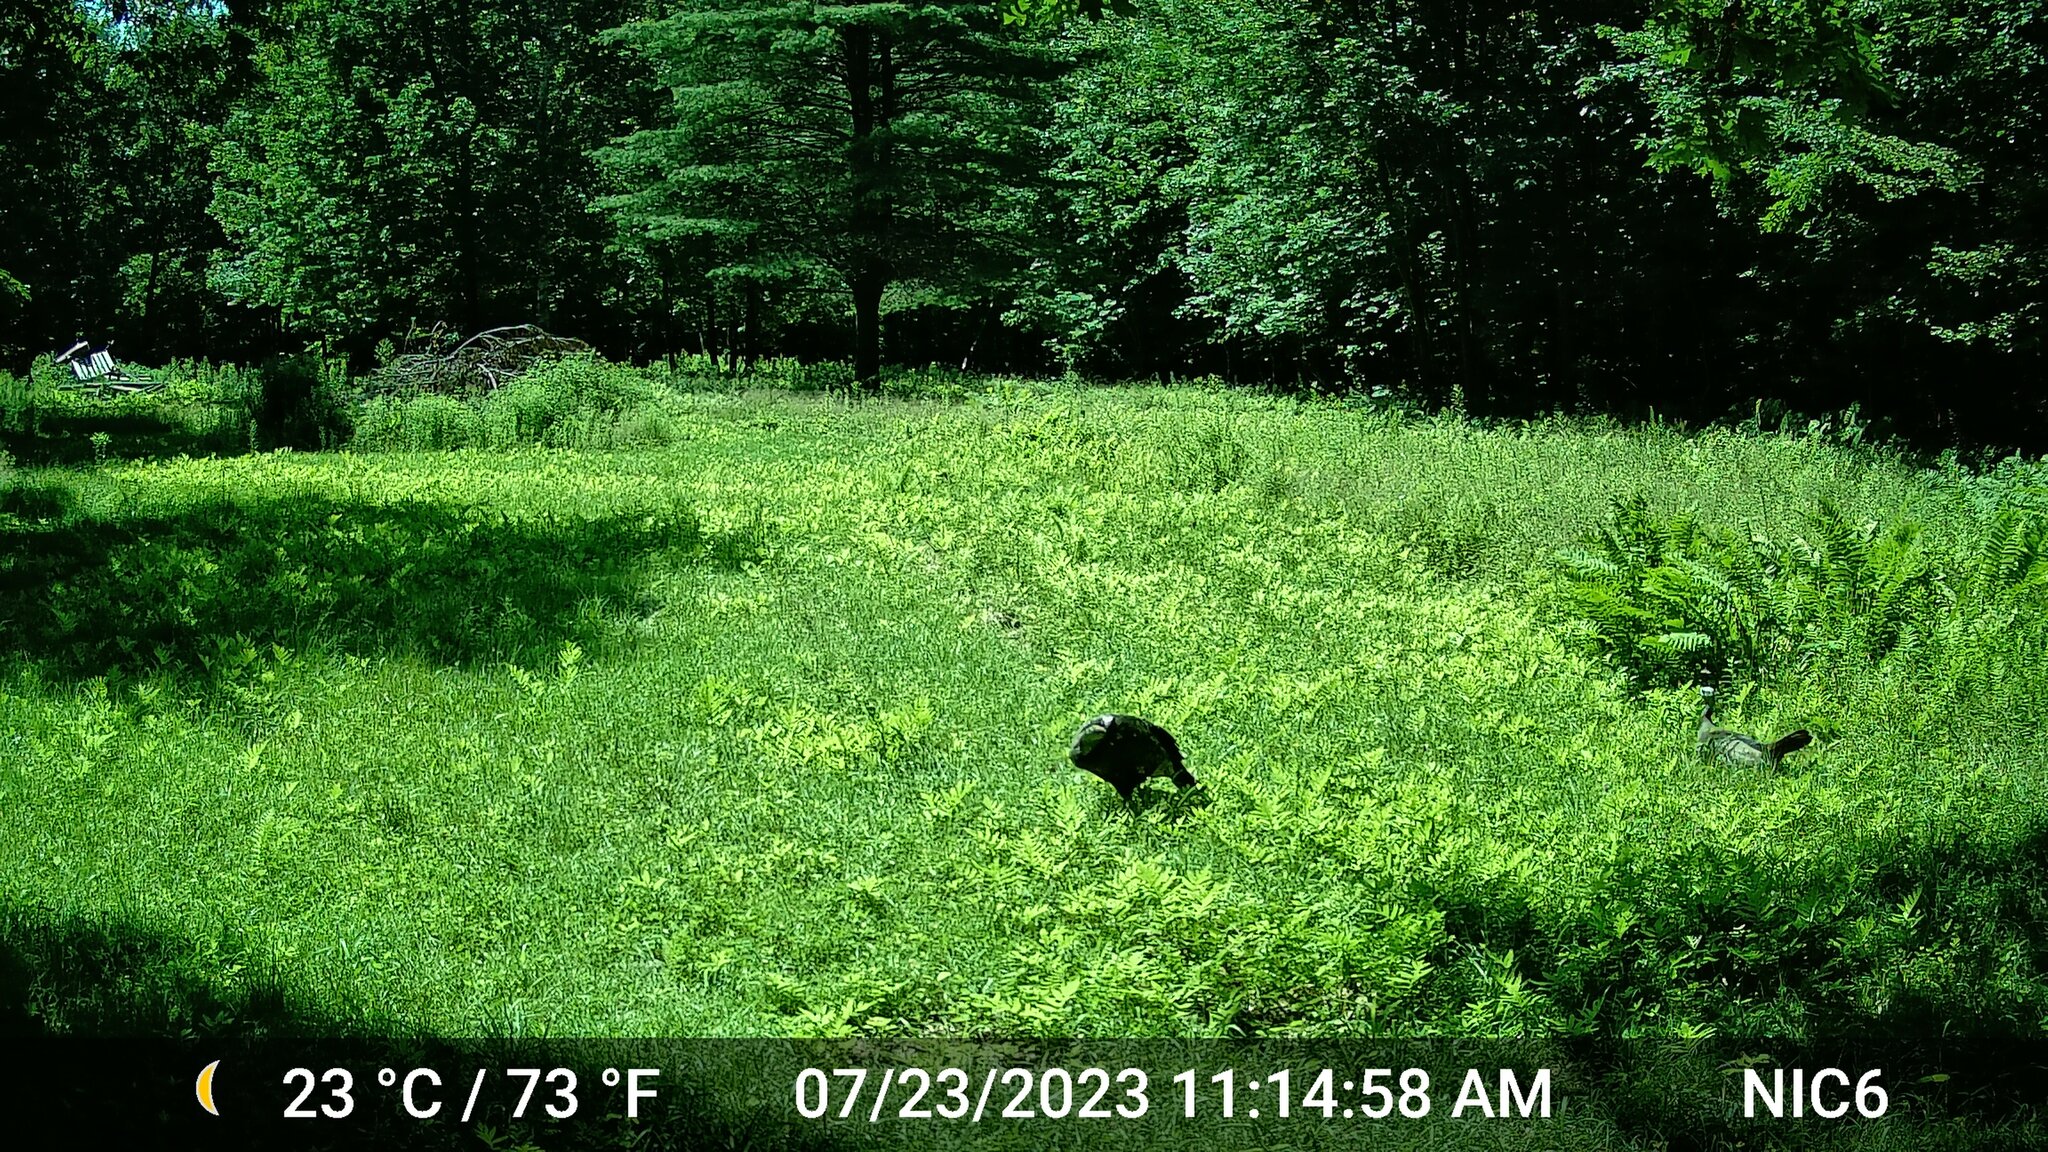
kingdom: Animalia
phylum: Chordata
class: Aves
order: Galliformes
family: Phasianidae
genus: Meleagris
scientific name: Meleagris gallopavo
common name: Wild turkey
